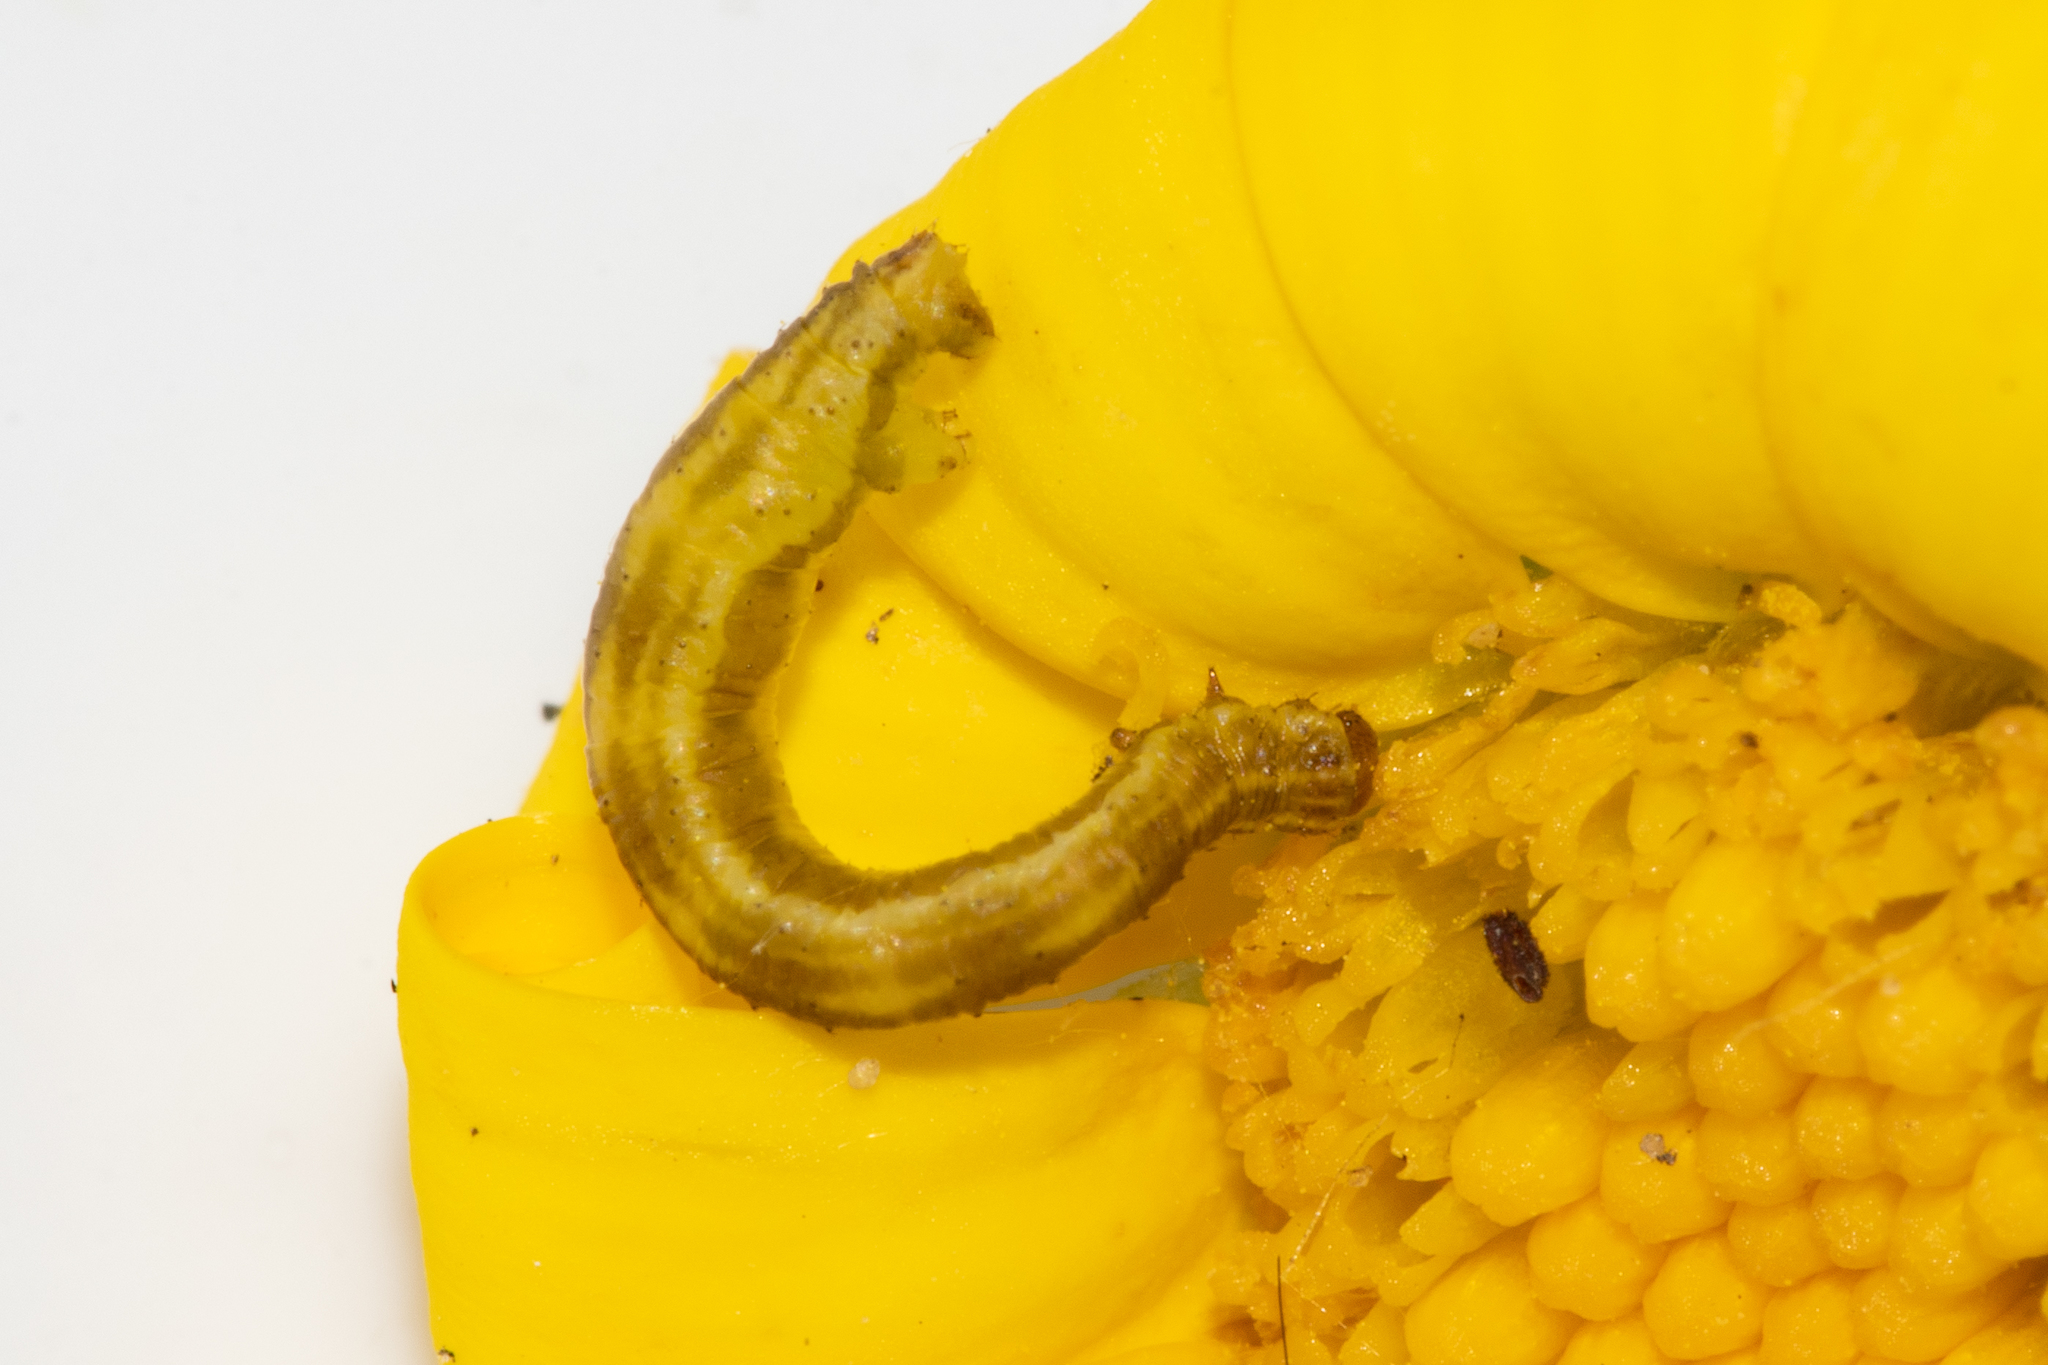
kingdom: Animalia
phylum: Arthropoda
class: Insecta
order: Lepidoptera
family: Geometridae
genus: Eupithecia
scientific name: Eupithecia laticallis
